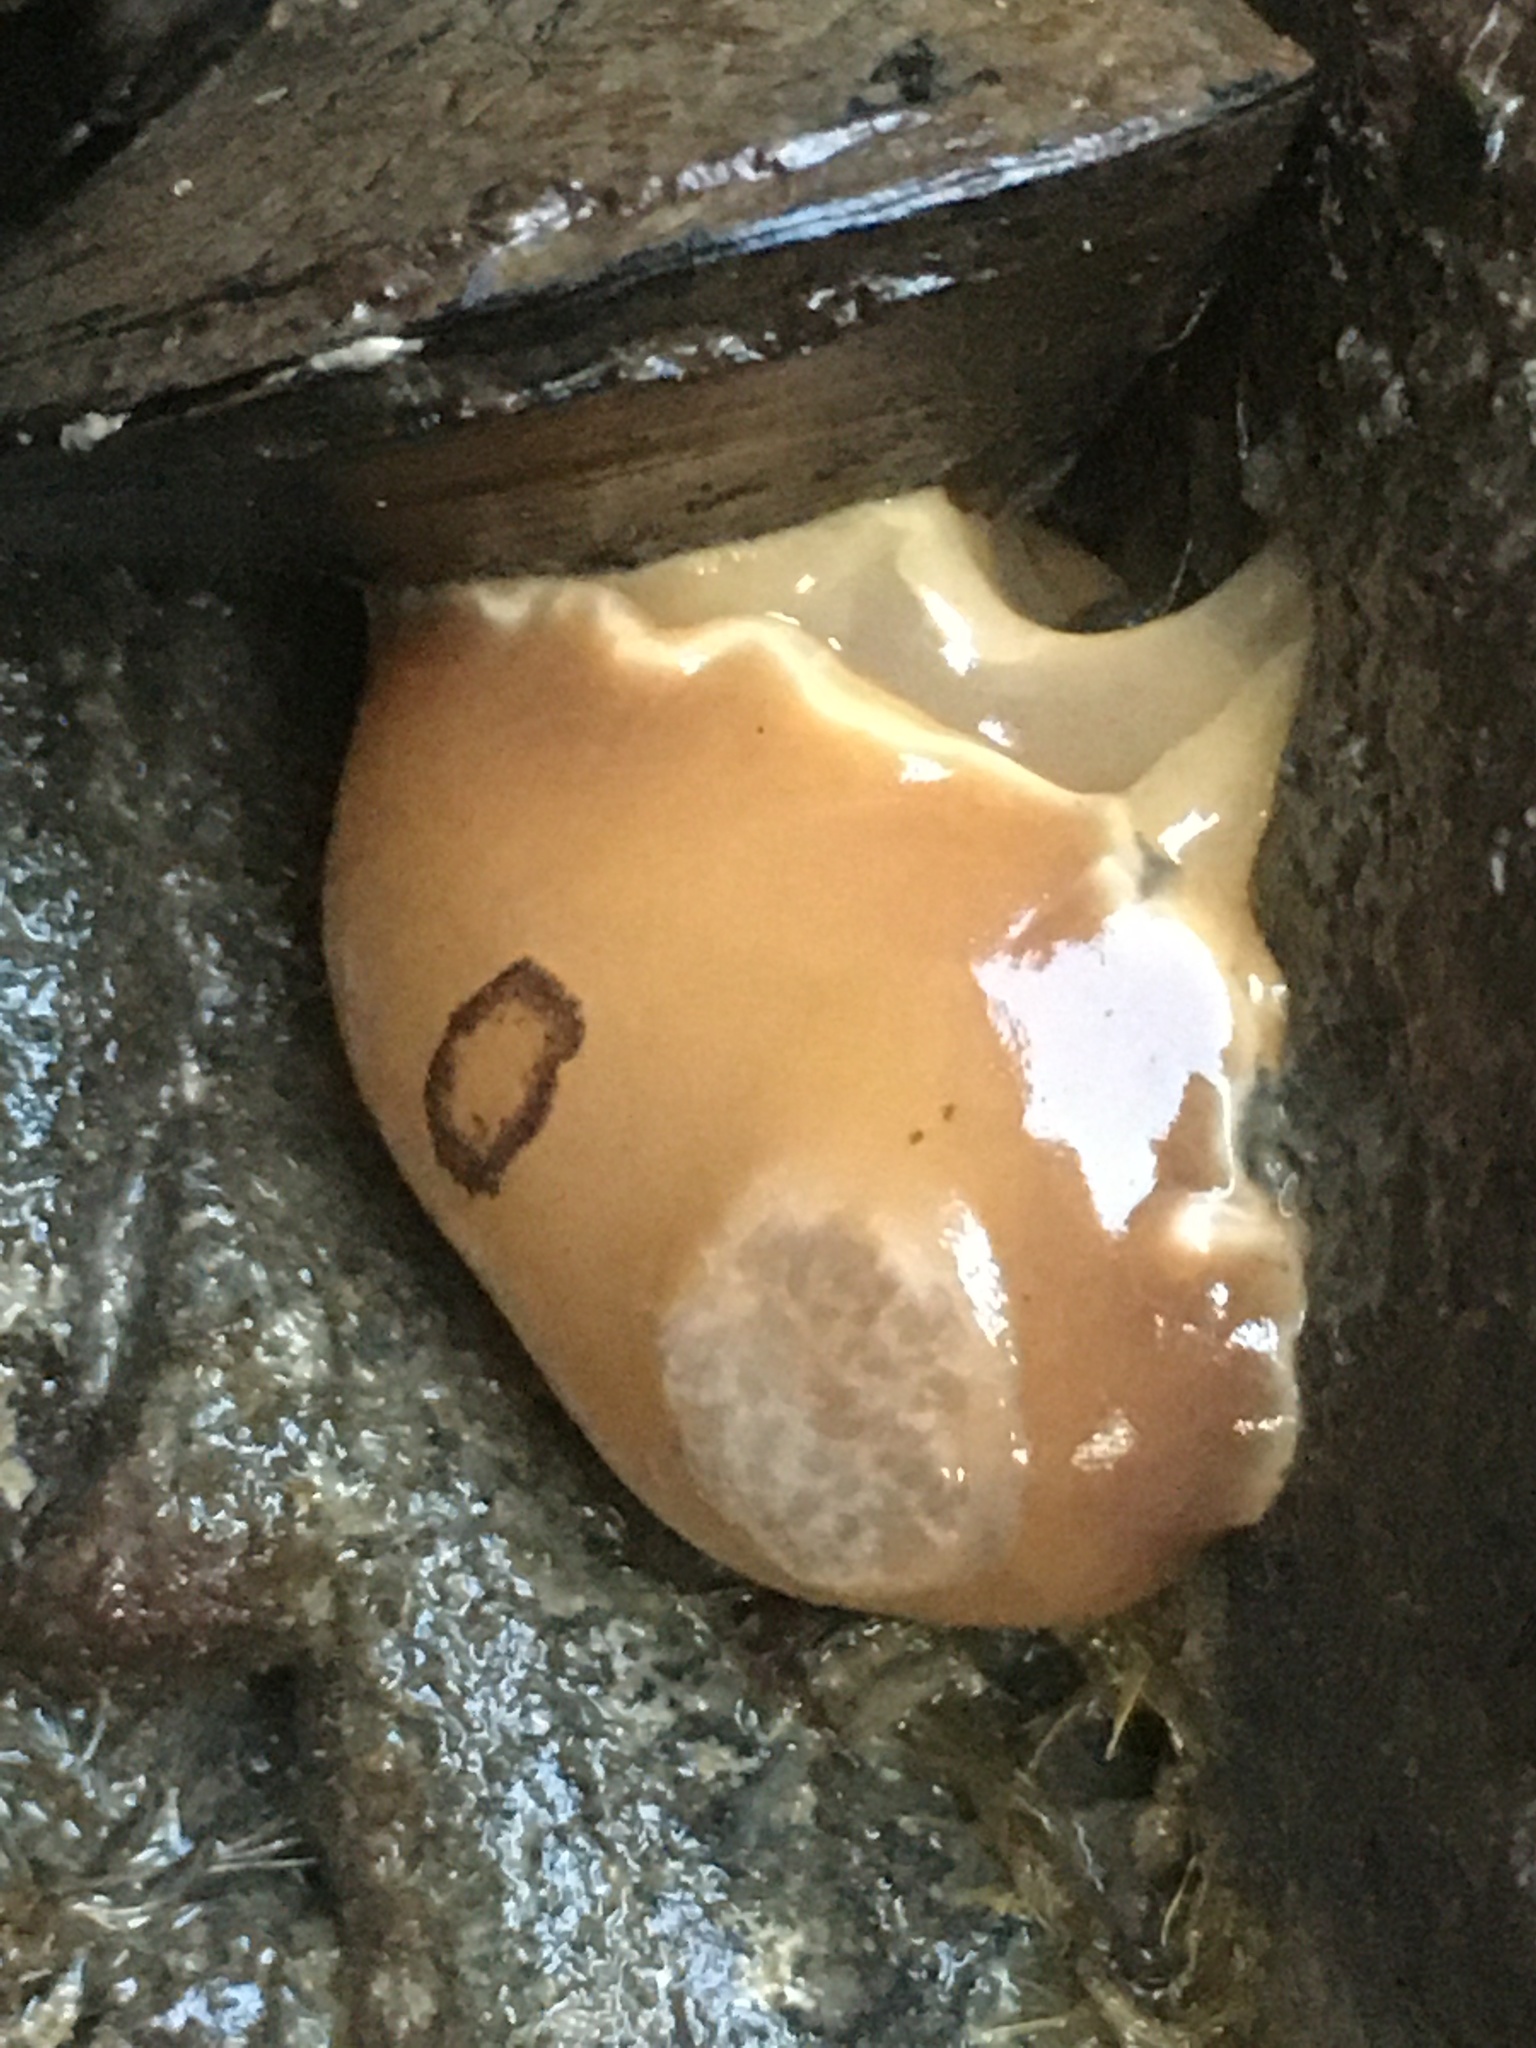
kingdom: Animalia
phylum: Mollusca
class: Gastropoda
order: Nudibranchia
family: Discodorididae
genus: Diaulula
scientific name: Diaulula sandiegensis
